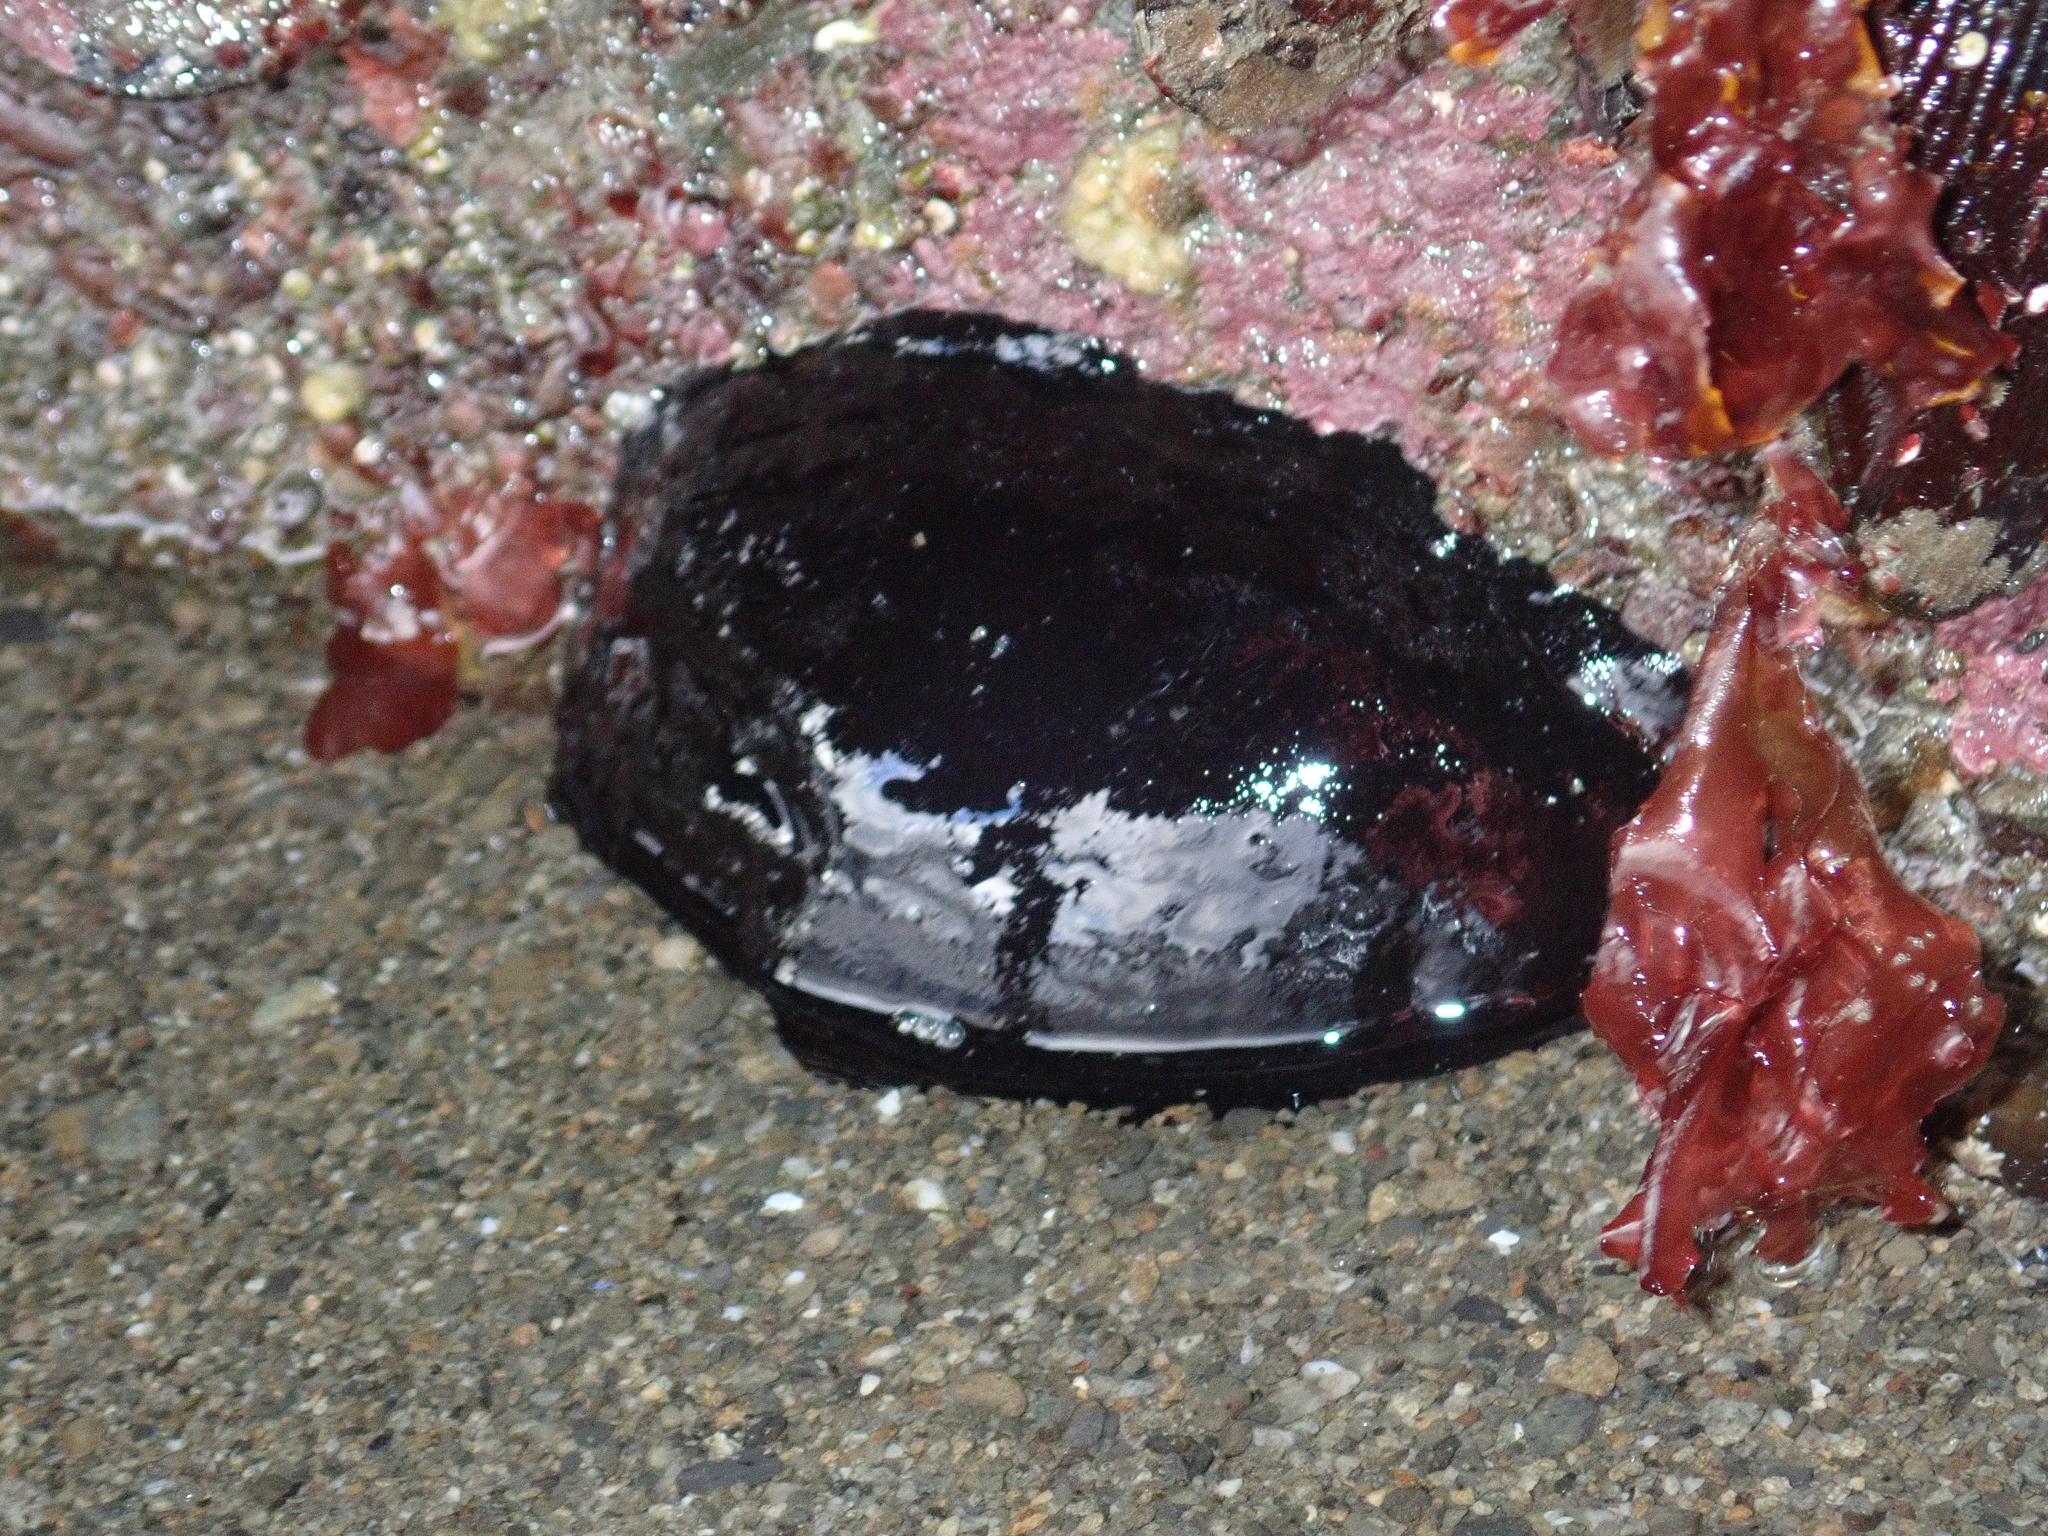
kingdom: Animalia
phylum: Mollusca
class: Gastropoda
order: Lepetellida
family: Fissurellidae
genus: Scutus
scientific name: Scutus breviculus
